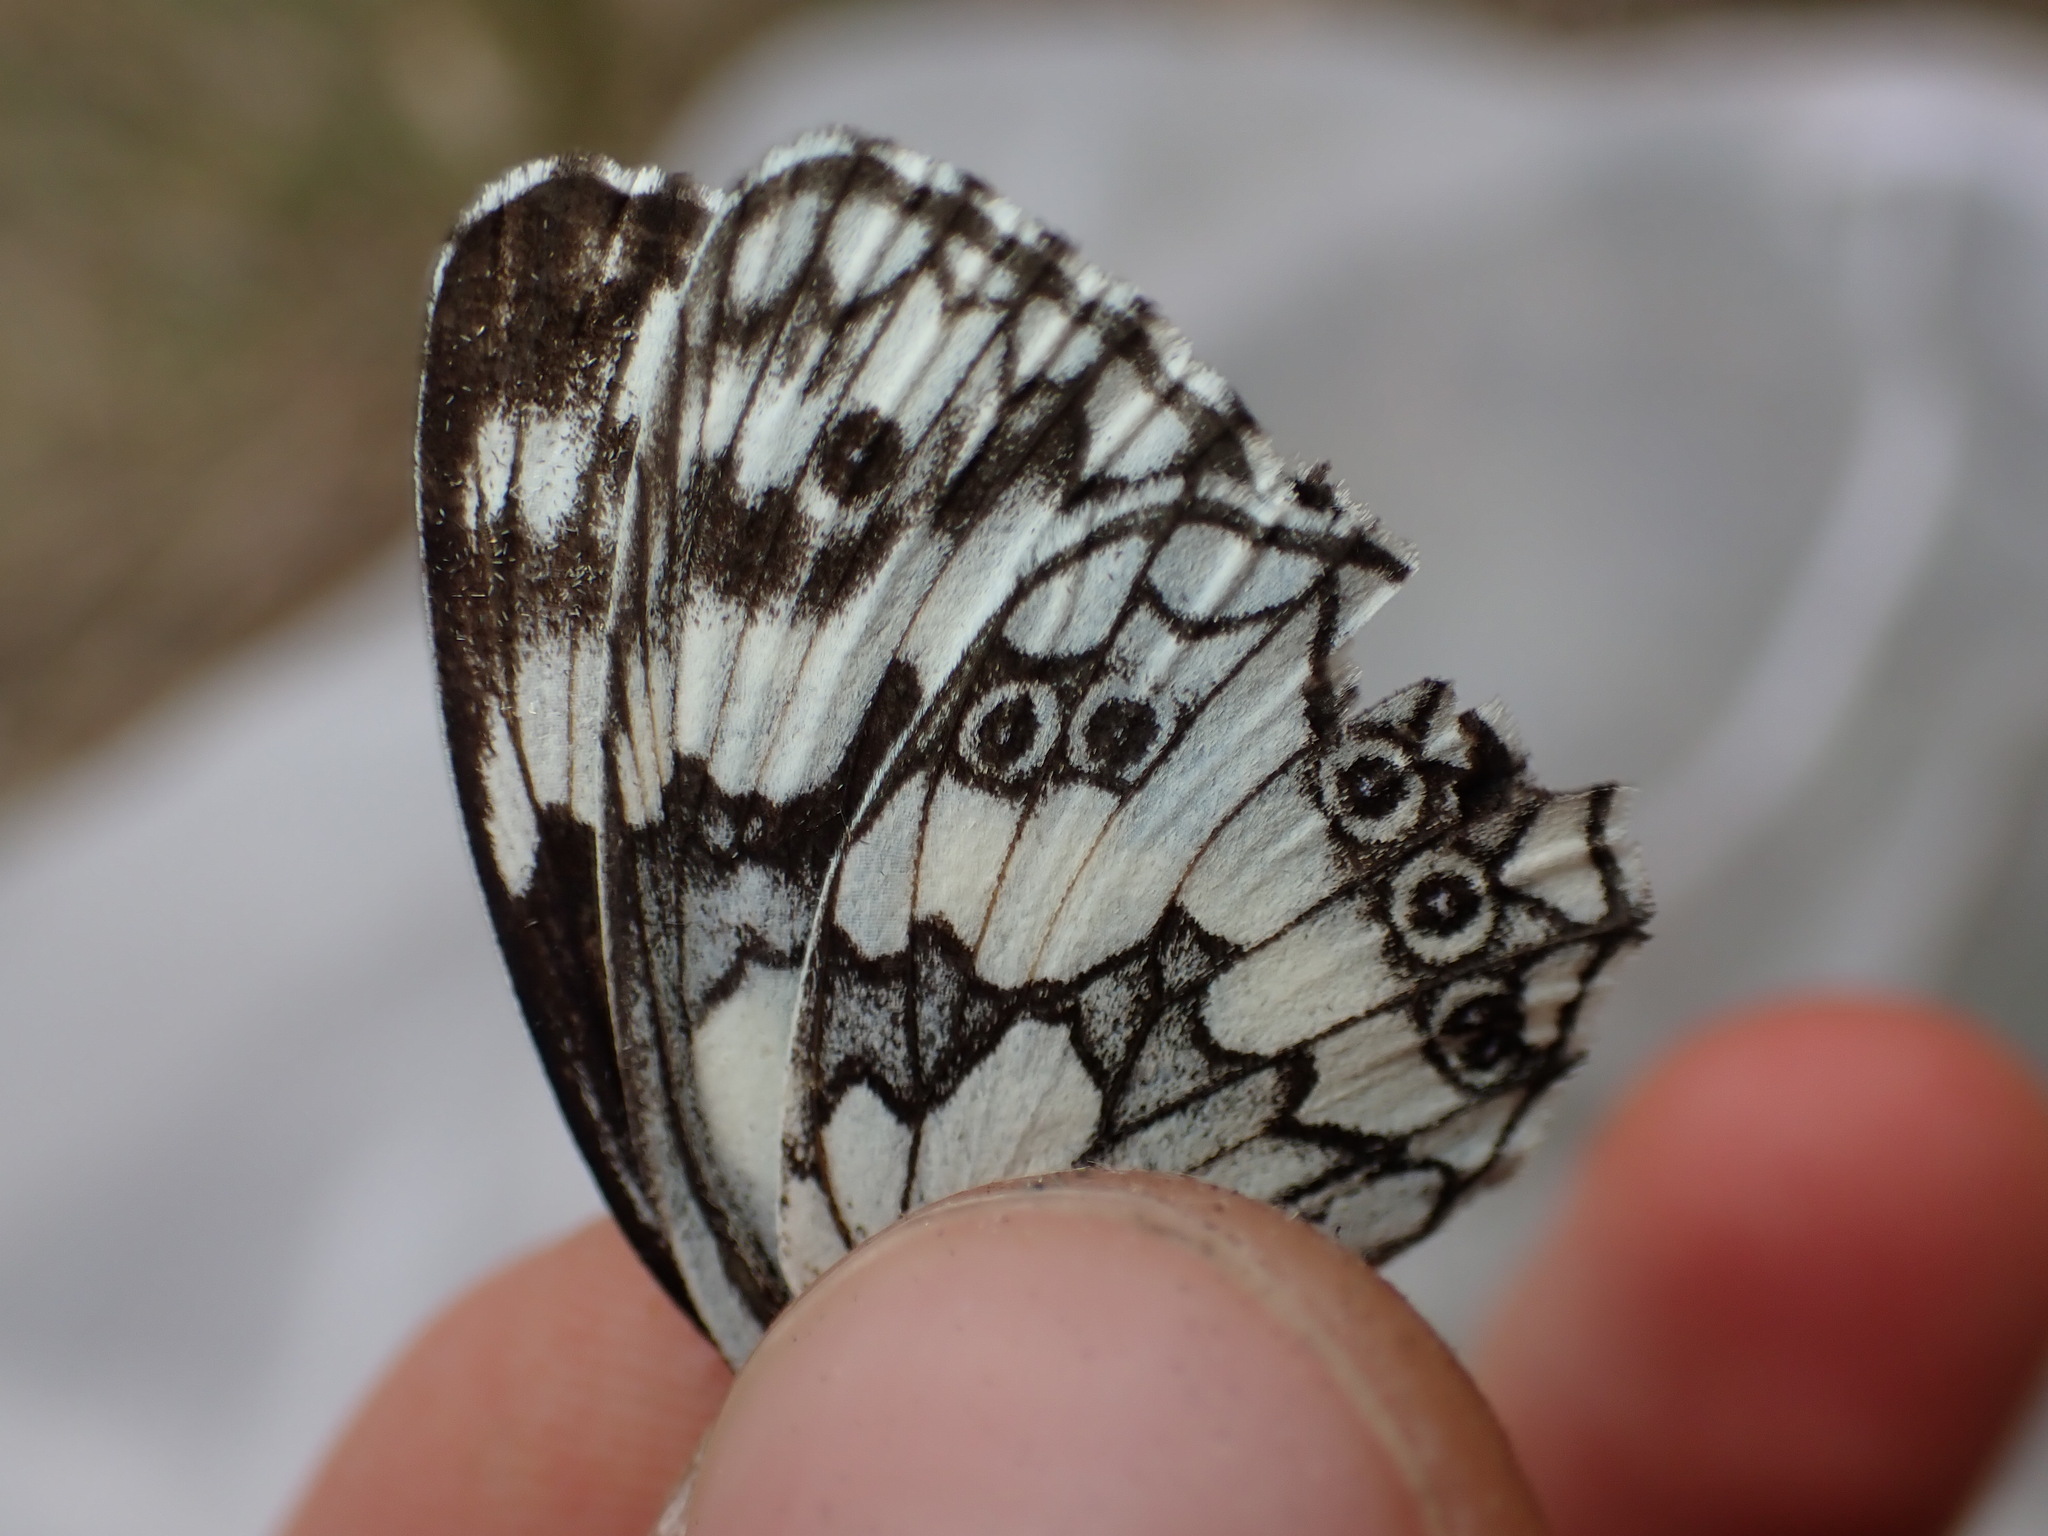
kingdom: Animalia
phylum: Arthropoda
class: Insecta
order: Lepidoptera
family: Nymphalidae
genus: Melanargia
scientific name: Melanargia galathea
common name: Marbled white
